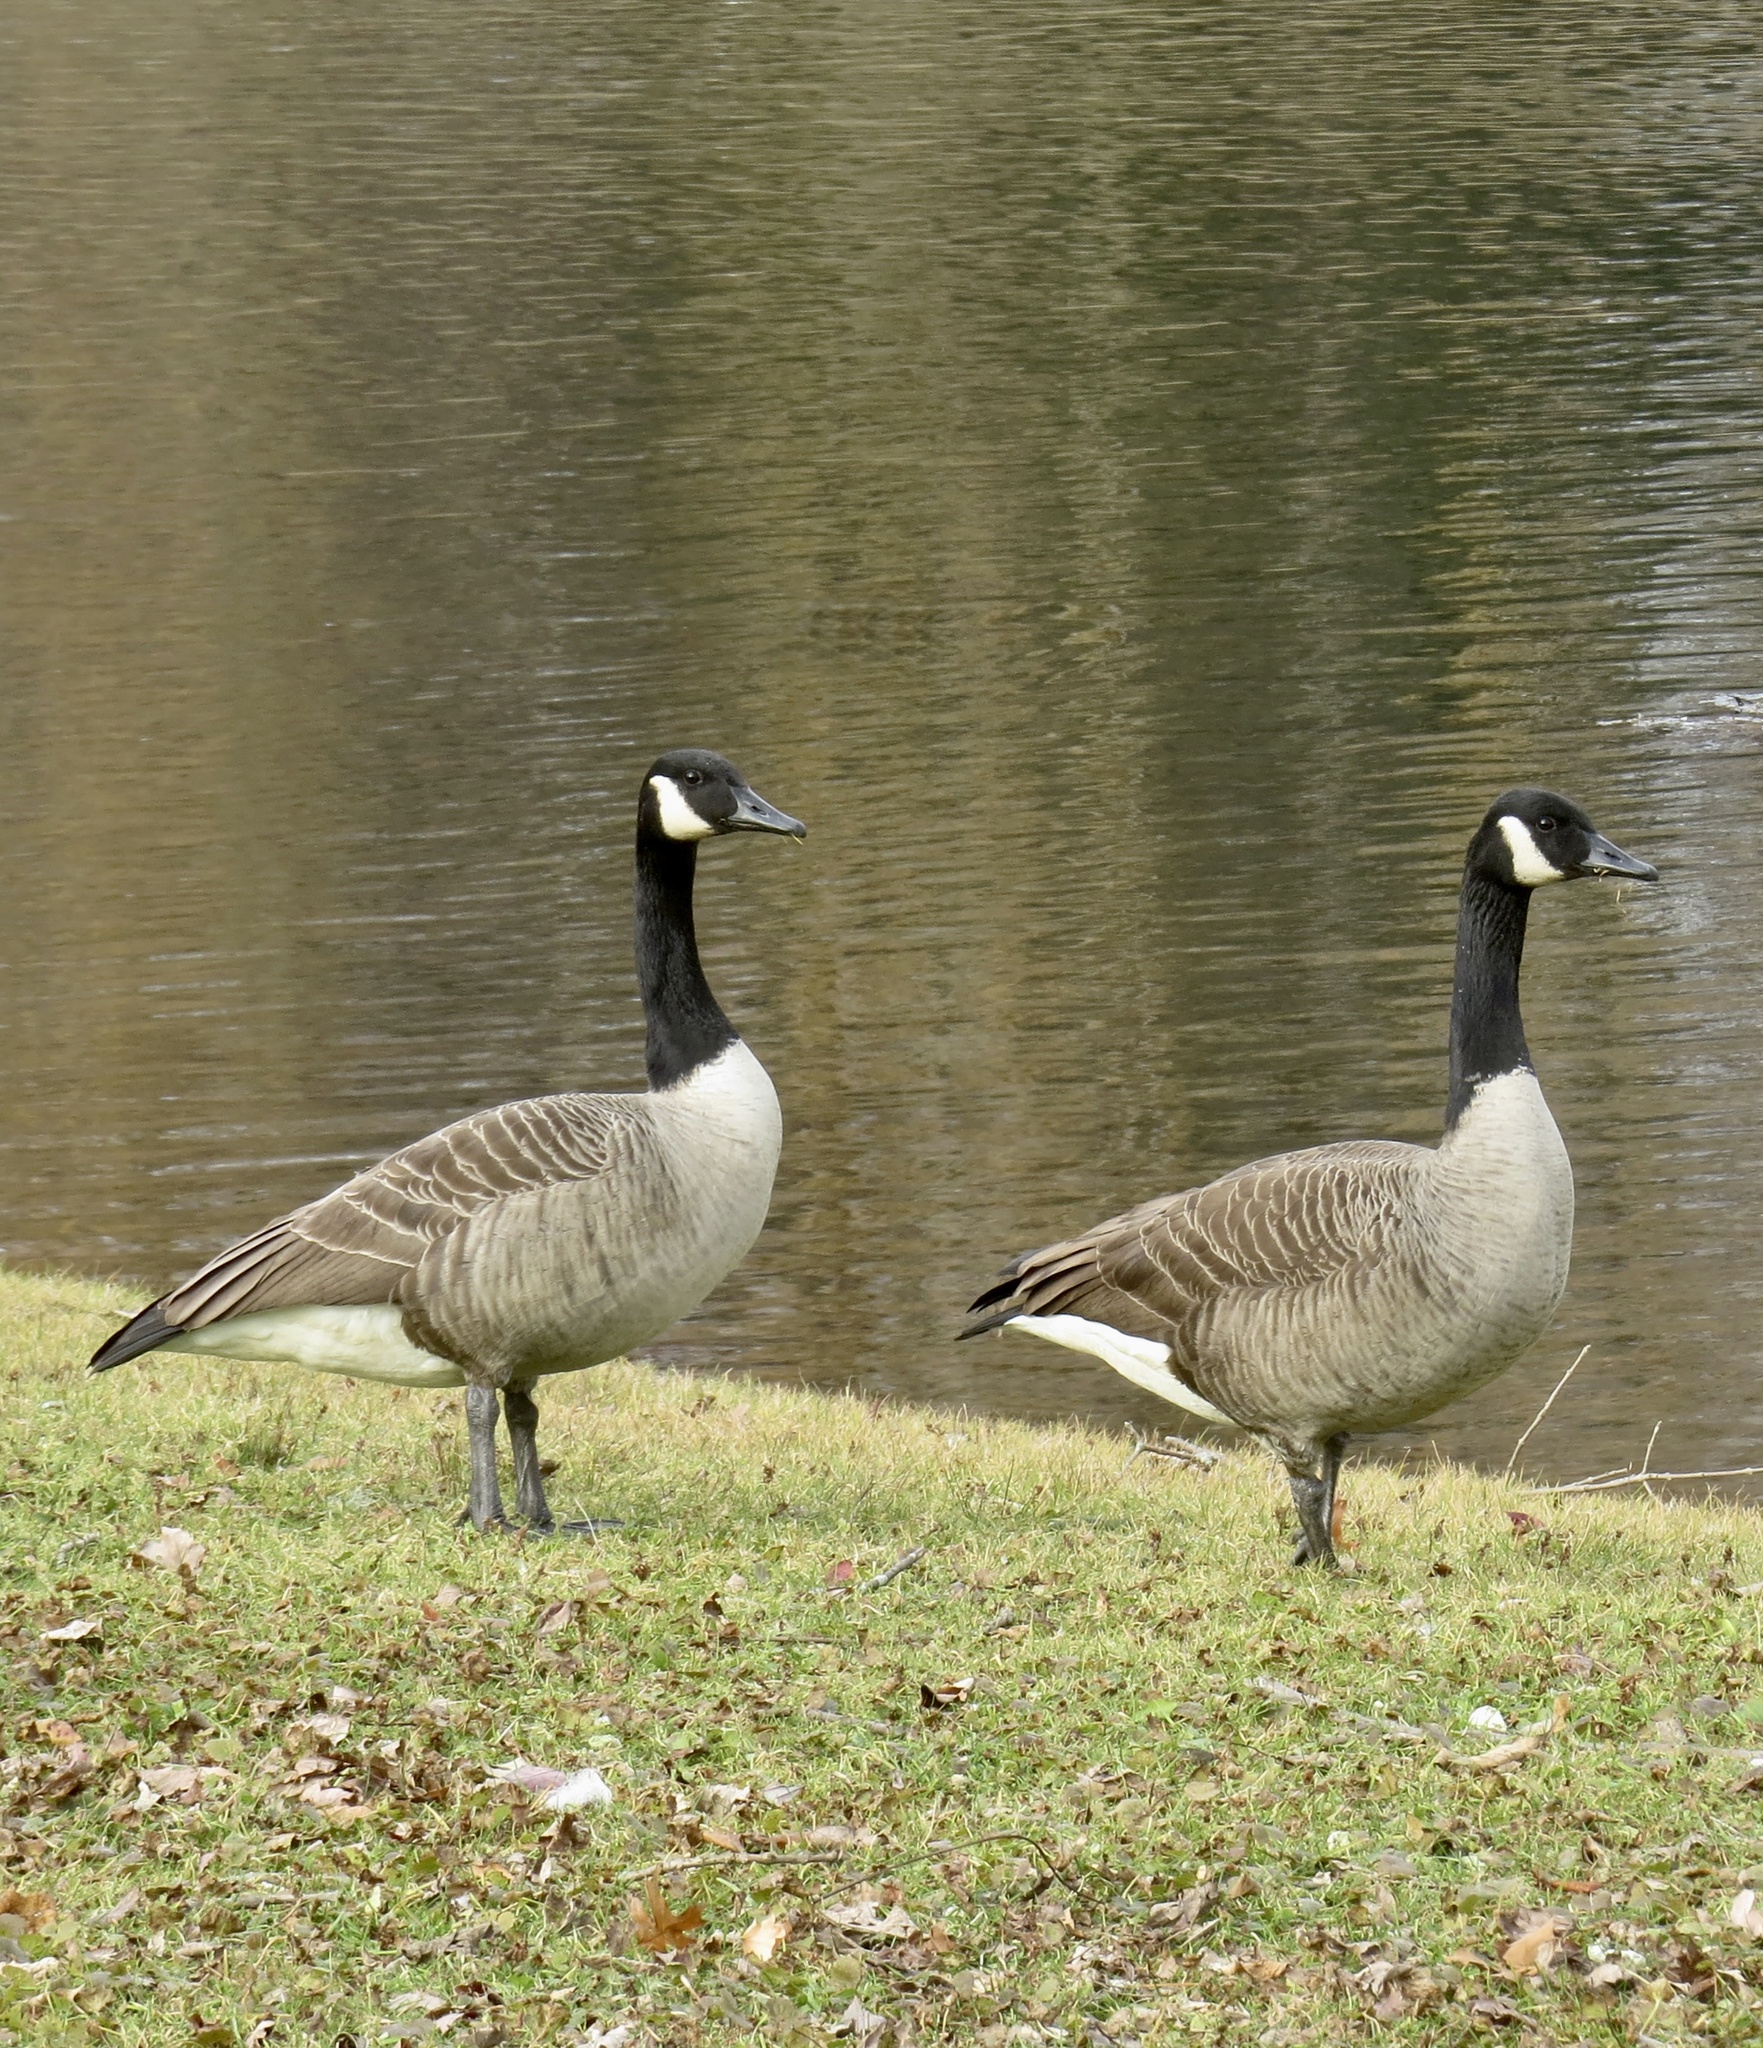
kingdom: Animalia
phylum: Chordata
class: Aves
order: Anseriformes
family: Anatidae
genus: Branta
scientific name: Branta canadensis
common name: Canada goose
